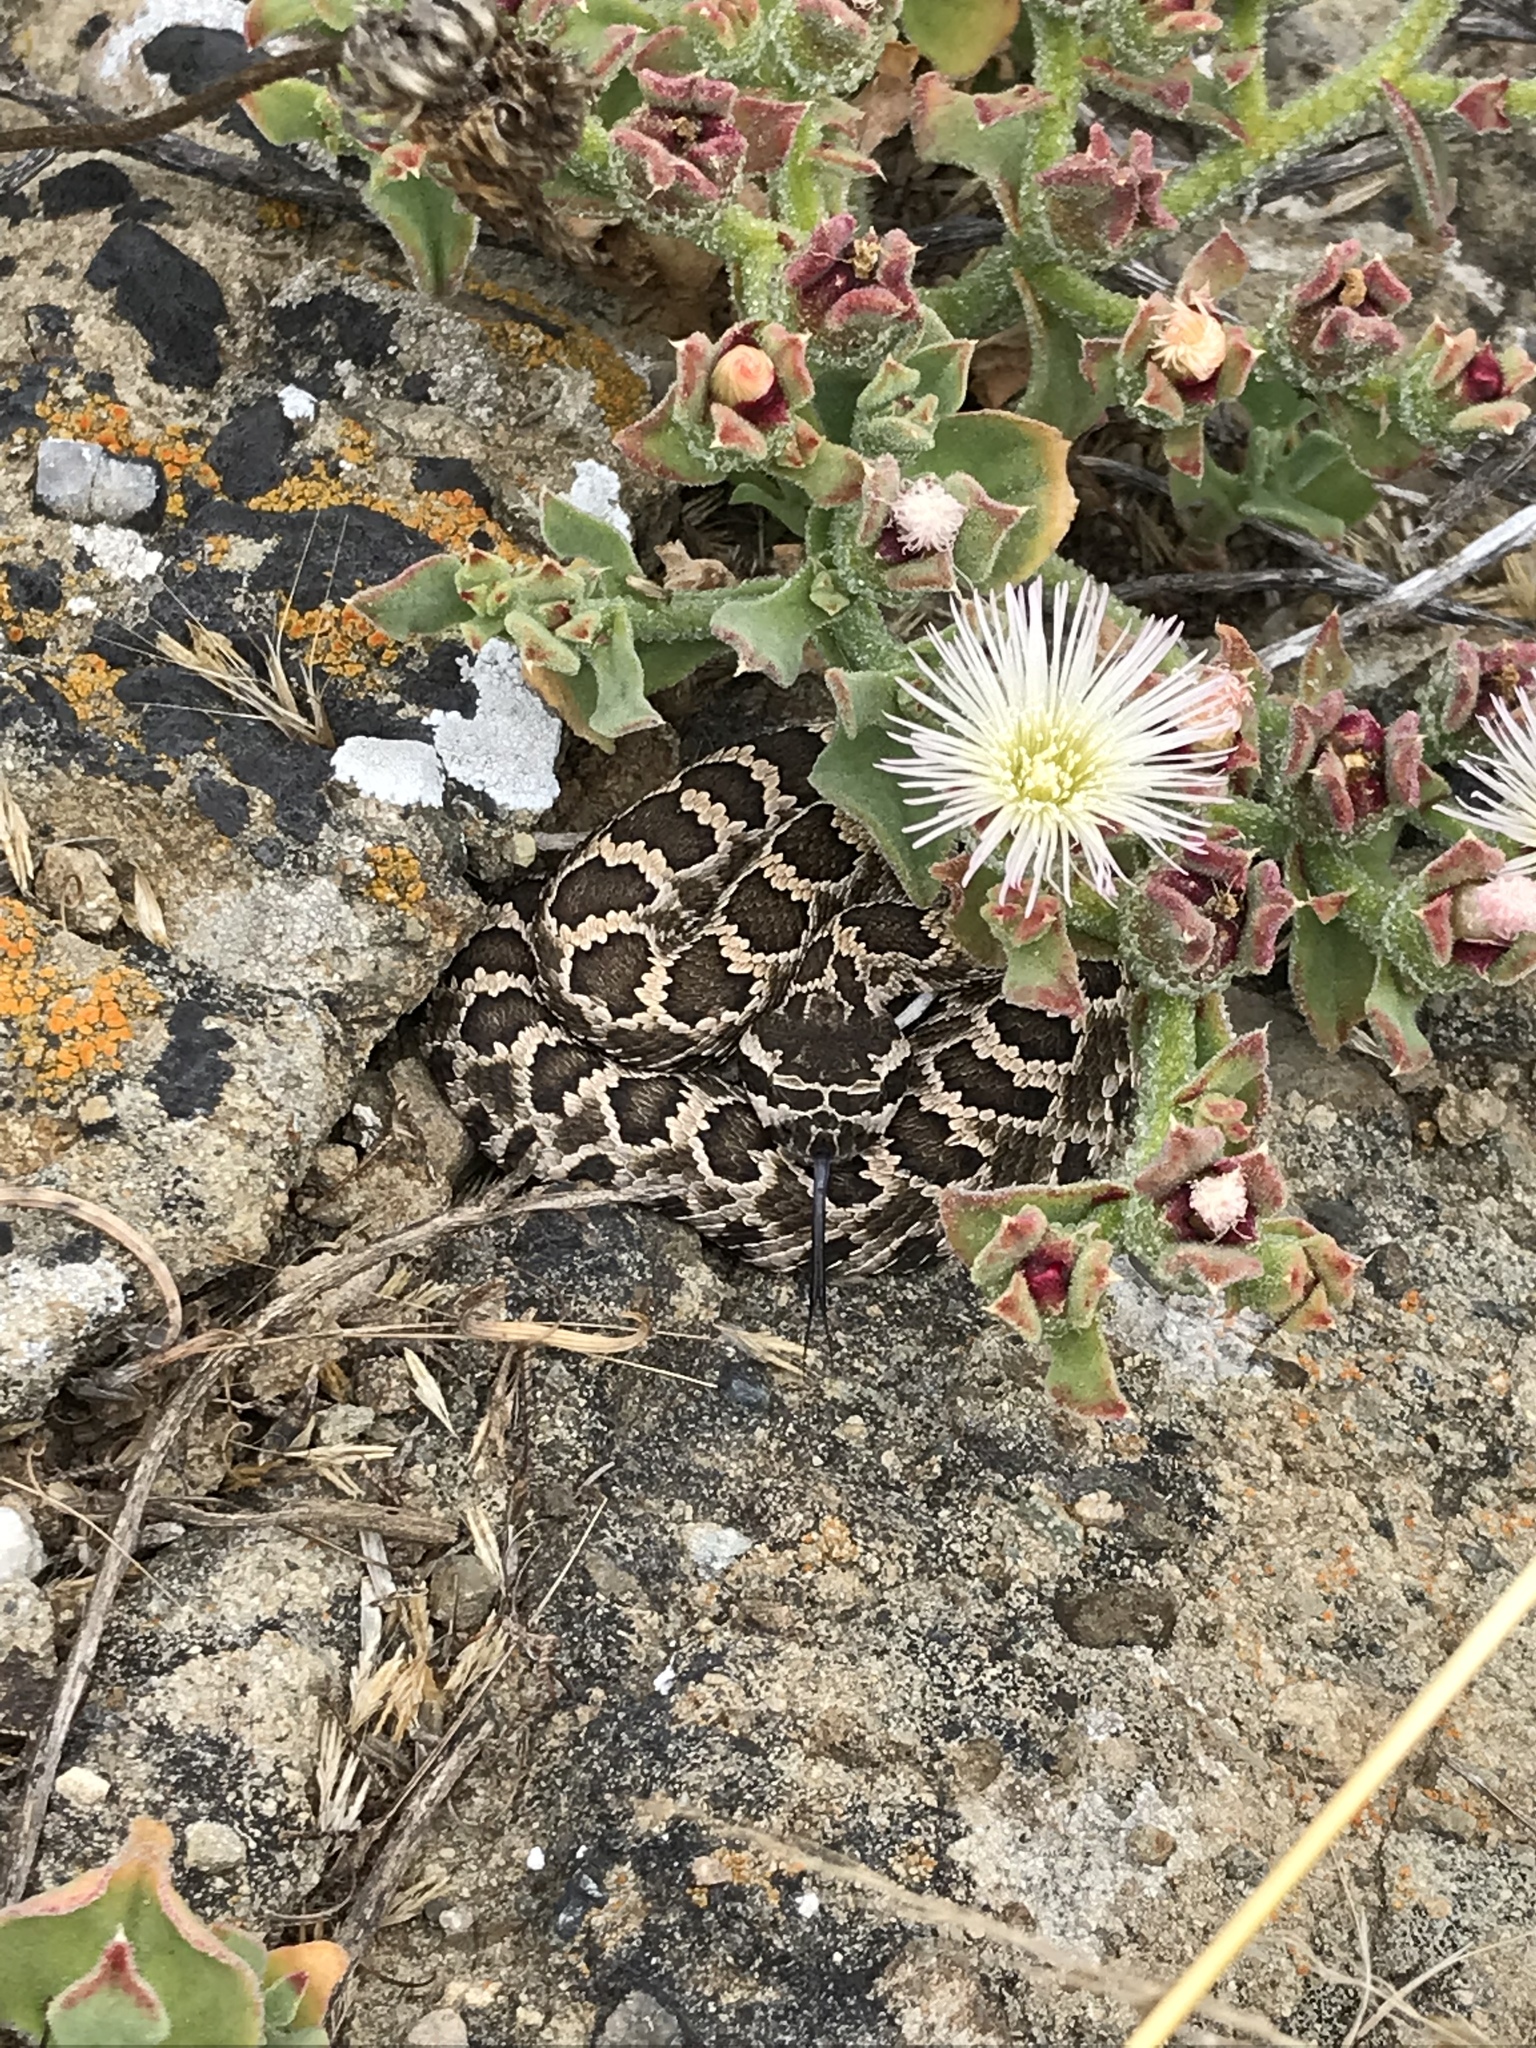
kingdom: Animalia
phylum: Chordata
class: Squamata
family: Viperidae
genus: Crotalus
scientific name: Crotalus oreganus
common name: Abyssus
